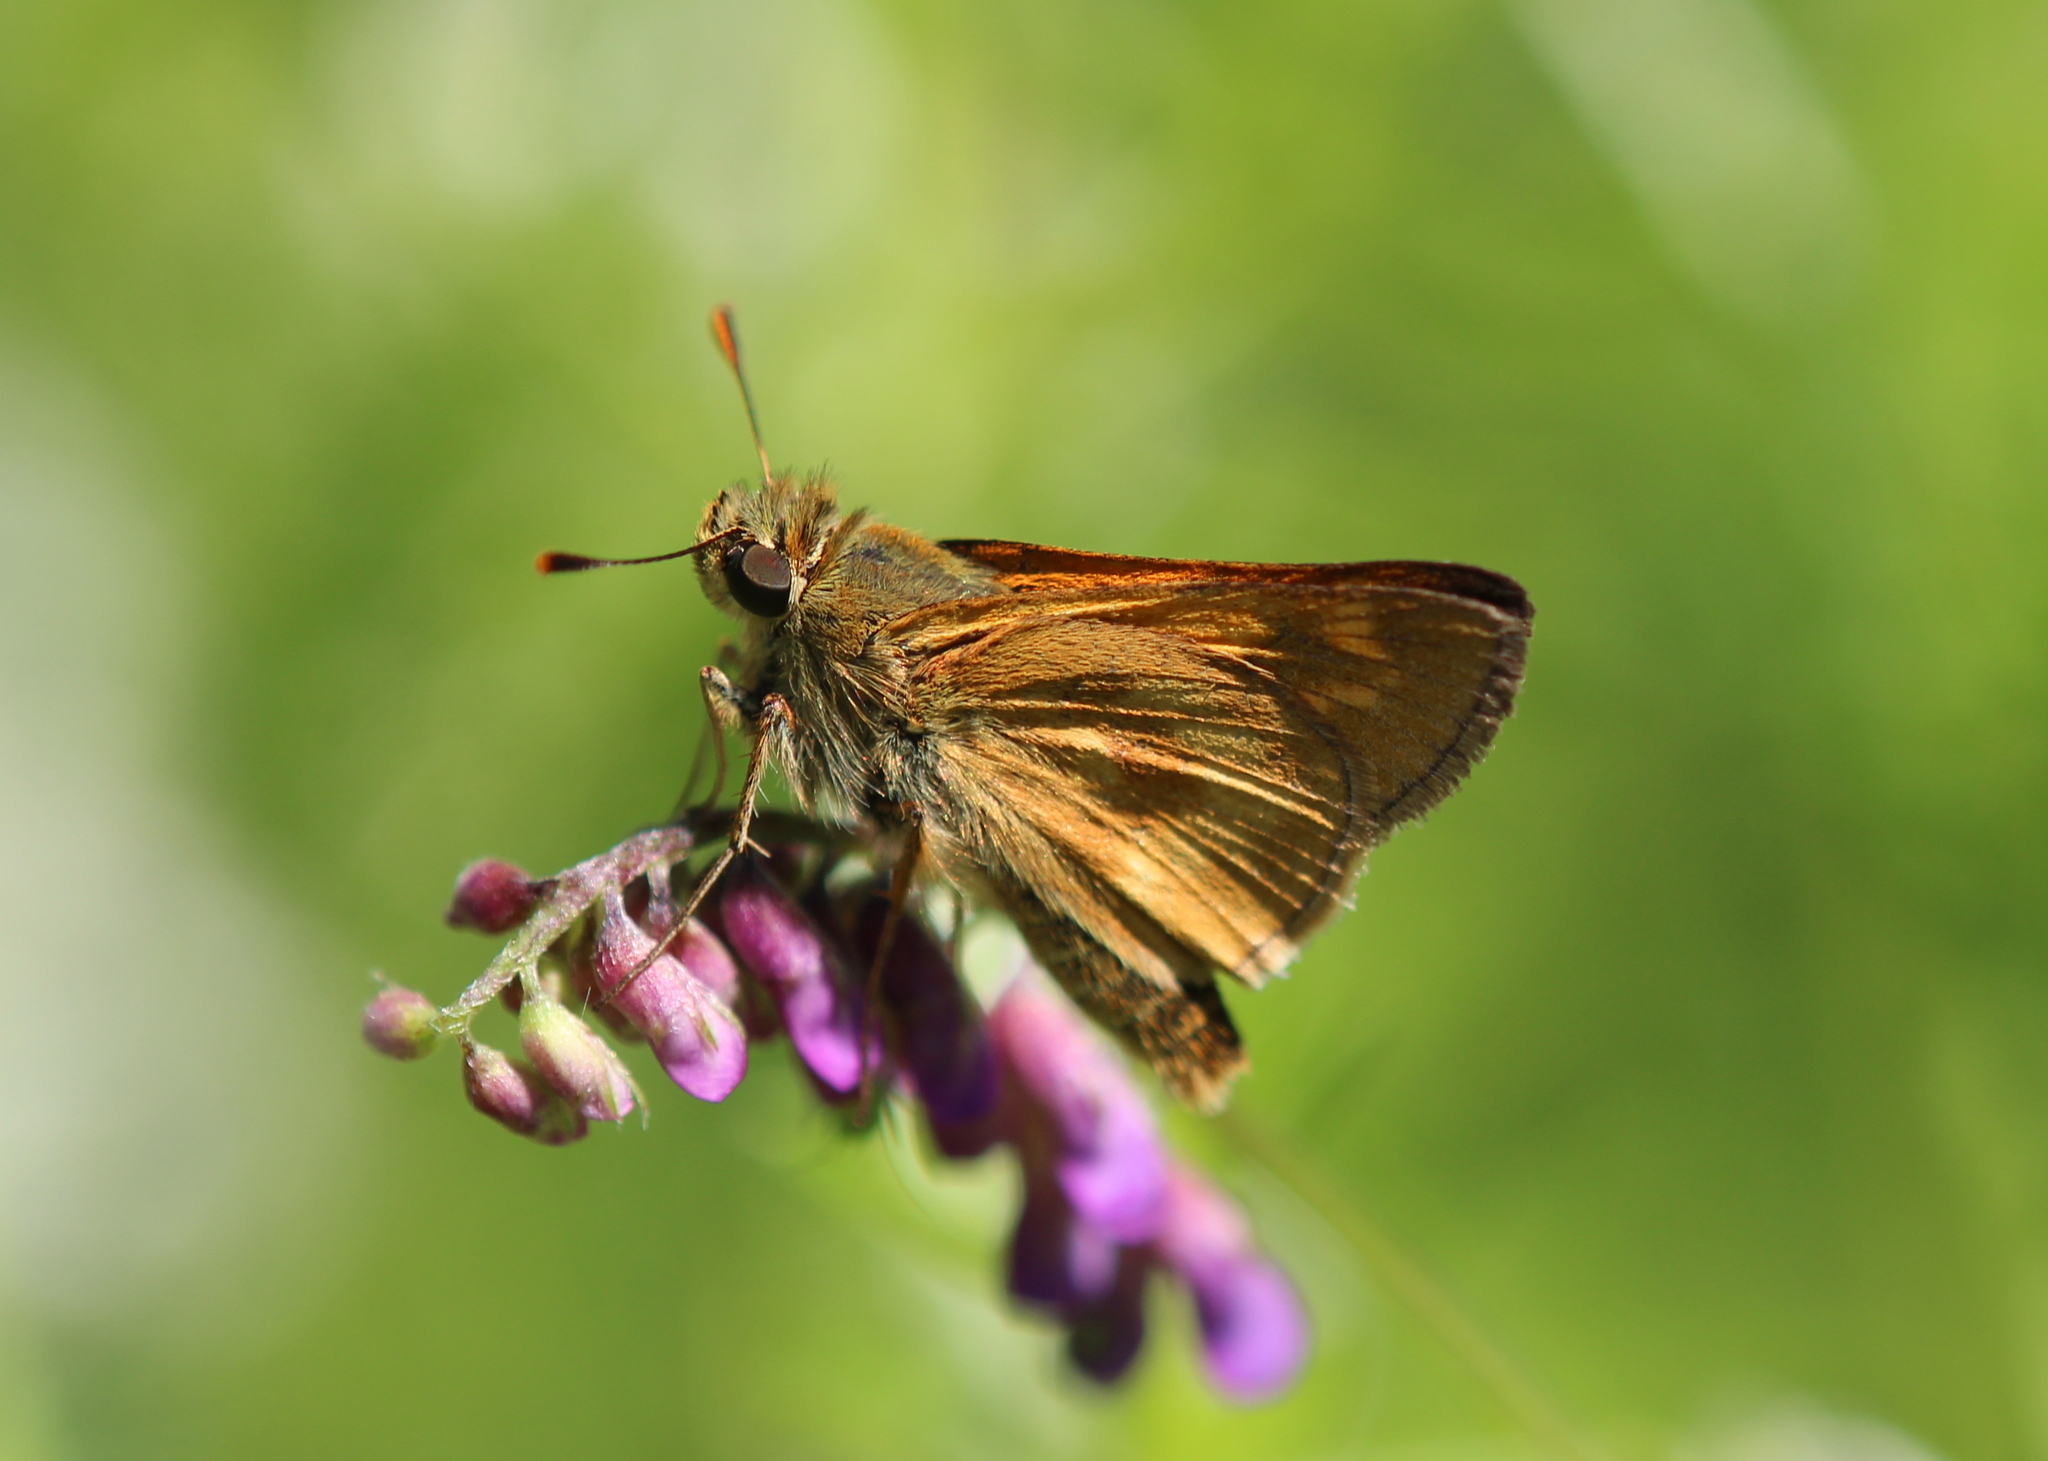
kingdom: Animalia
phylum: Arthropoda
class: Insecta
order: Lepidoptera
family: Hesperiidae
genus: Polites
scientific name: Polites mystic
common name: Long dash
